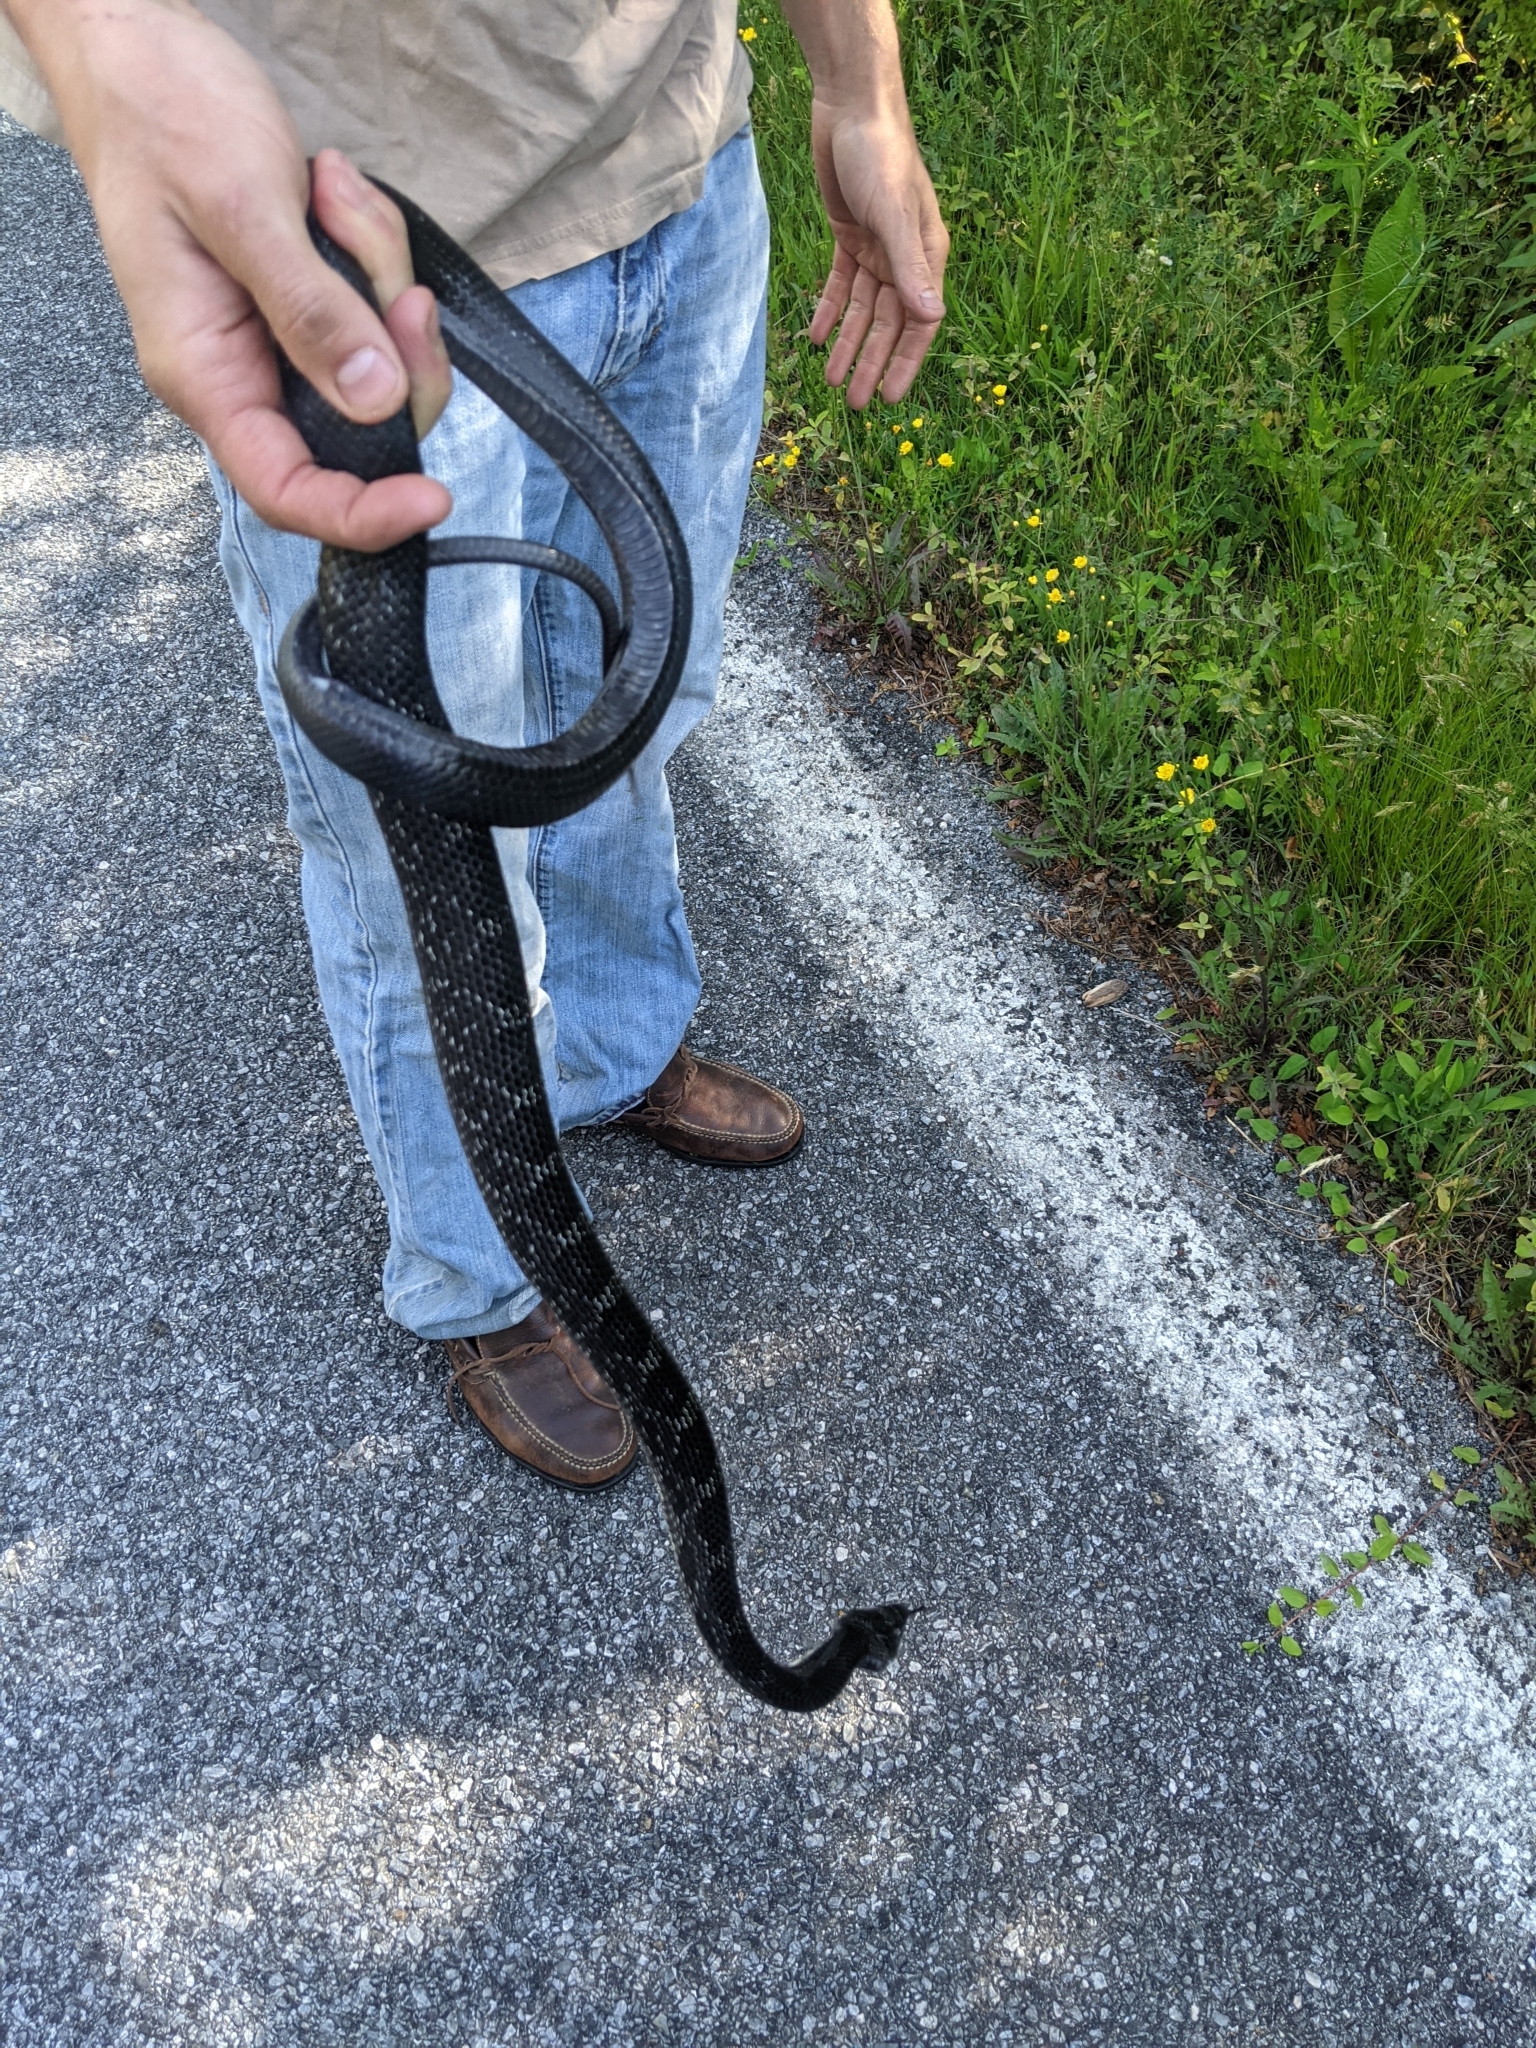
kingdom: Animalia
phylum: Chordata
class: Squamata
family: Colubridae
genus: Pantherophis
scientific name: Pantherophis alleghaniensis
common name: Eastern rat snake
